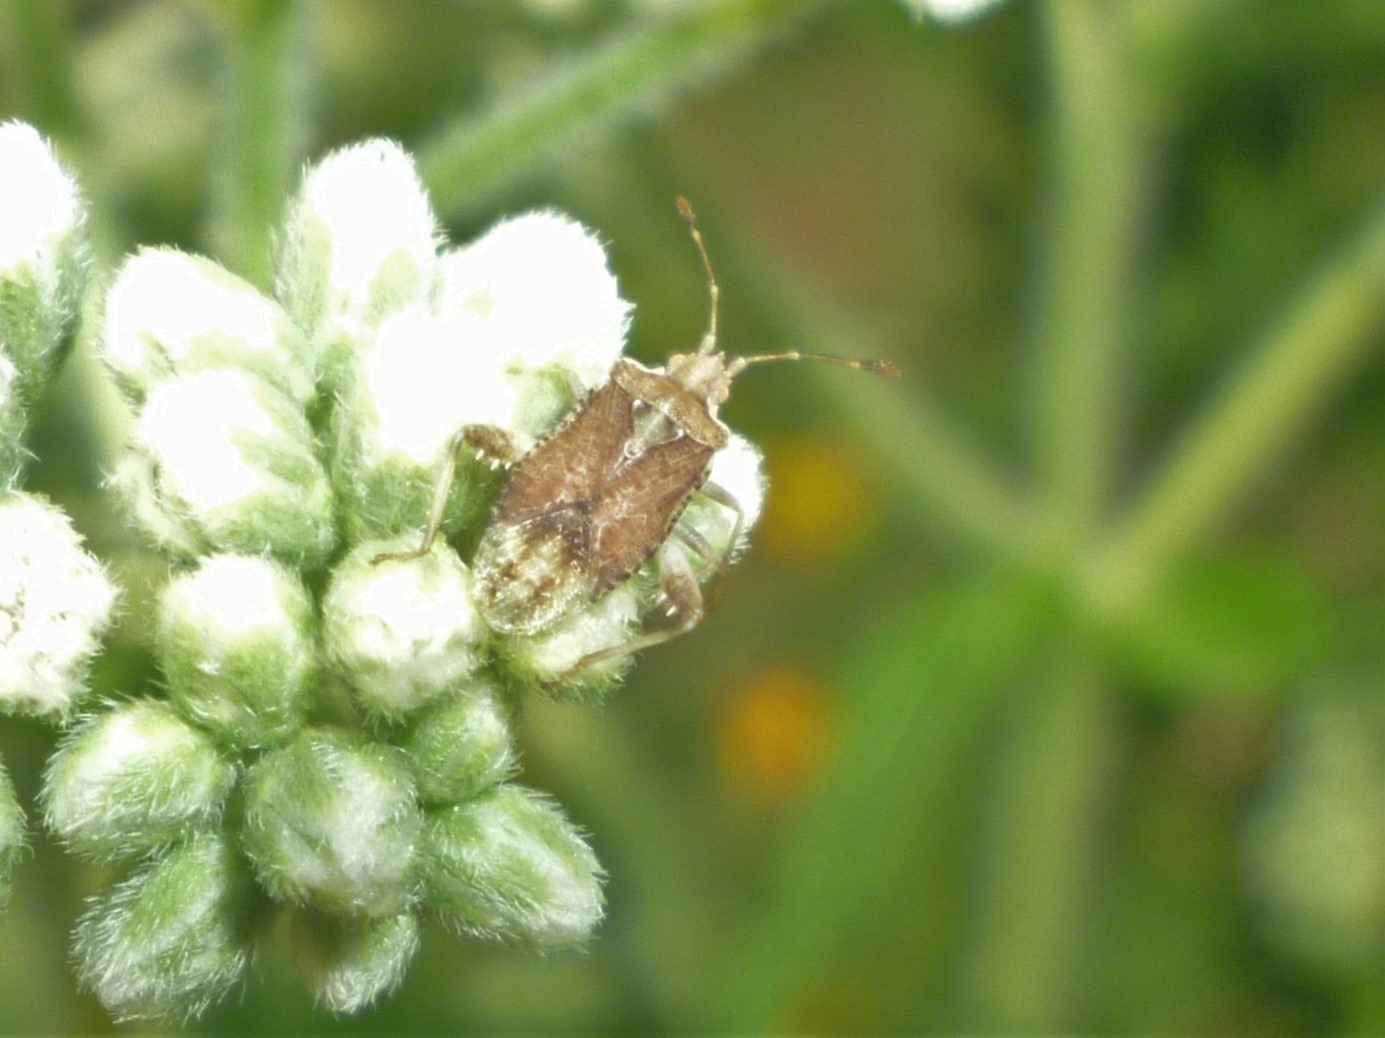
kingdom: Animalia
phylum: Arthropoda
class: Insecta
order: Hemiptera
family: Rhopalidae
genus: Harmostes
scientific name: Harmostes fraterculus
